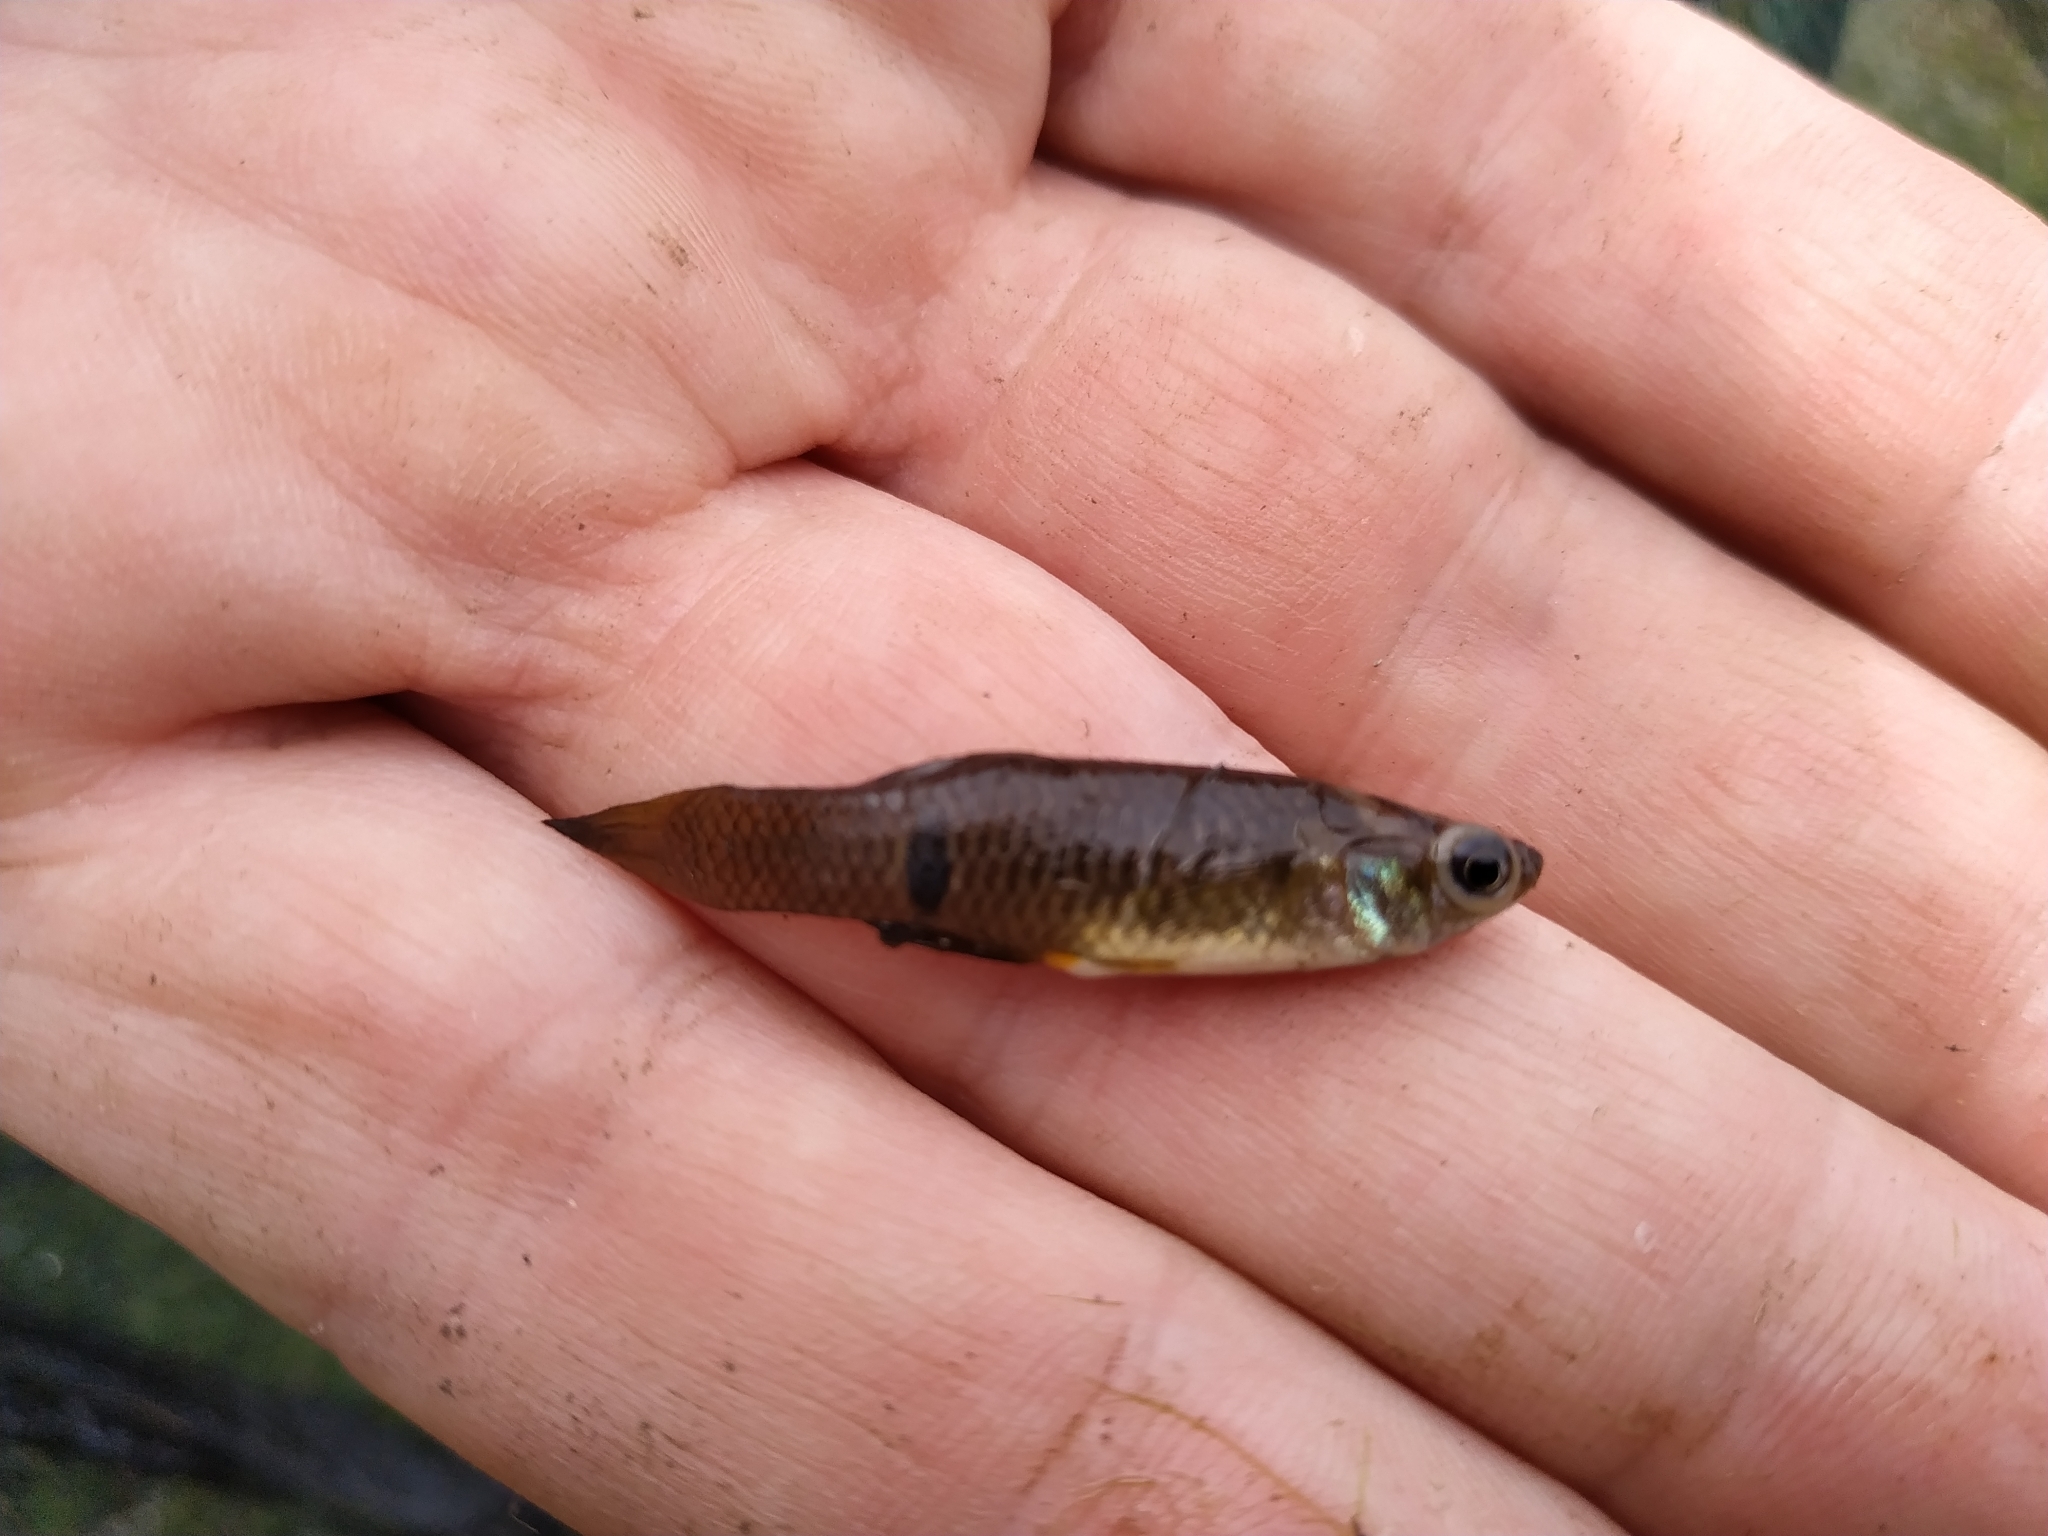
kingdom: Animalia
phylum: Chordata
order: Cyprinodontiformes
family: Poeciliidae
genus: Phalloceros
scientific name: Phalloceros caudimaculatus
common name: Dusky millions fish
